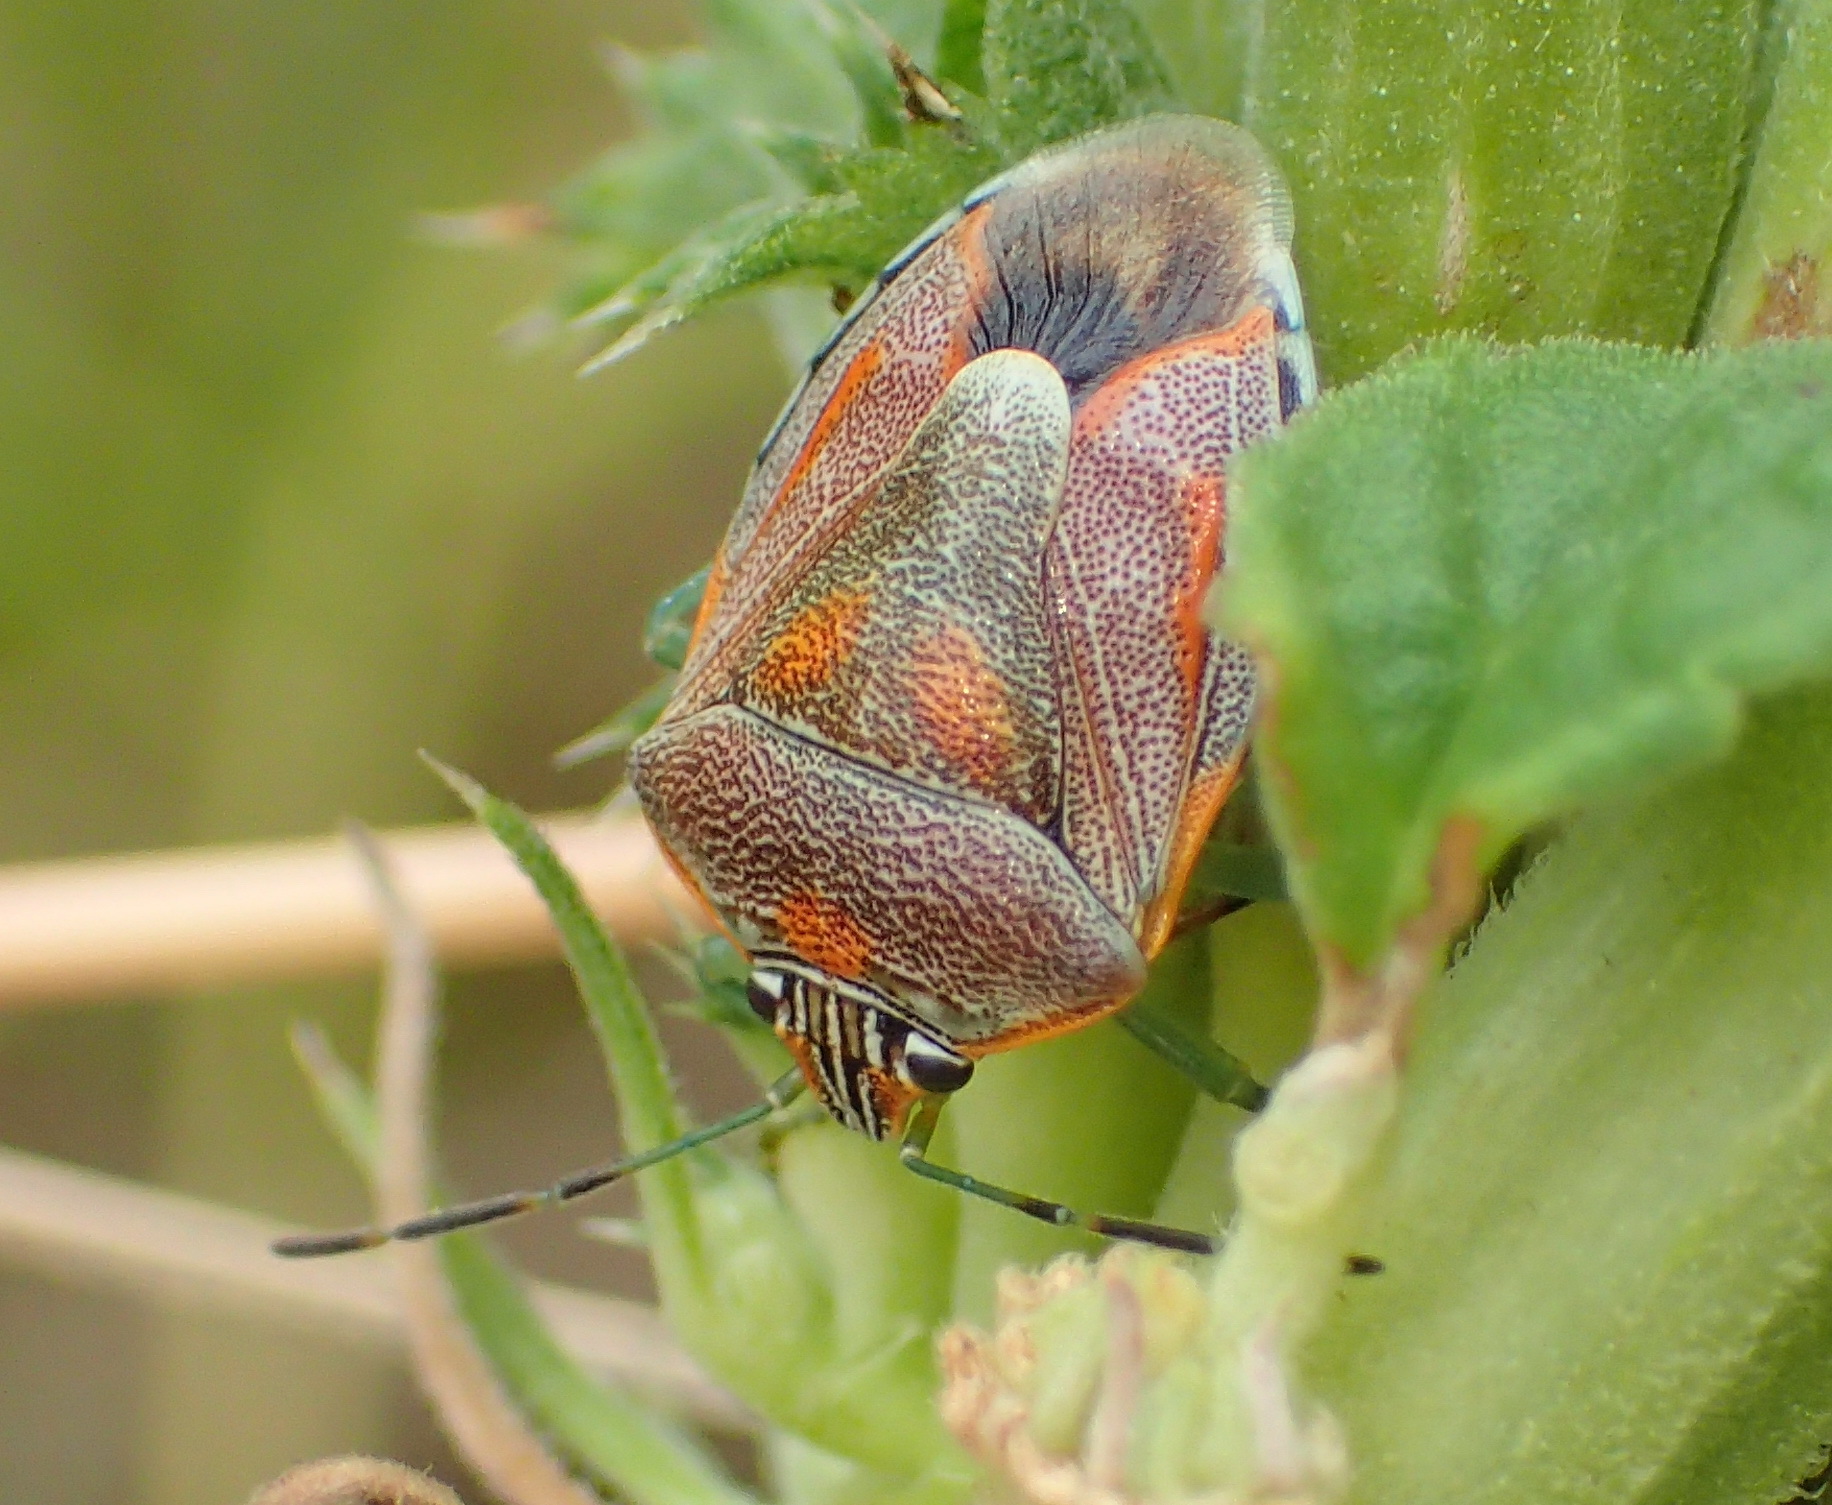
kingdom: Animalia
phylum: Arthropoda
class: Insecta
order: Hemiptera
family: Pentatomidae
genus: Antestiopsis
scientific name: Antestiopsis thunbergii
